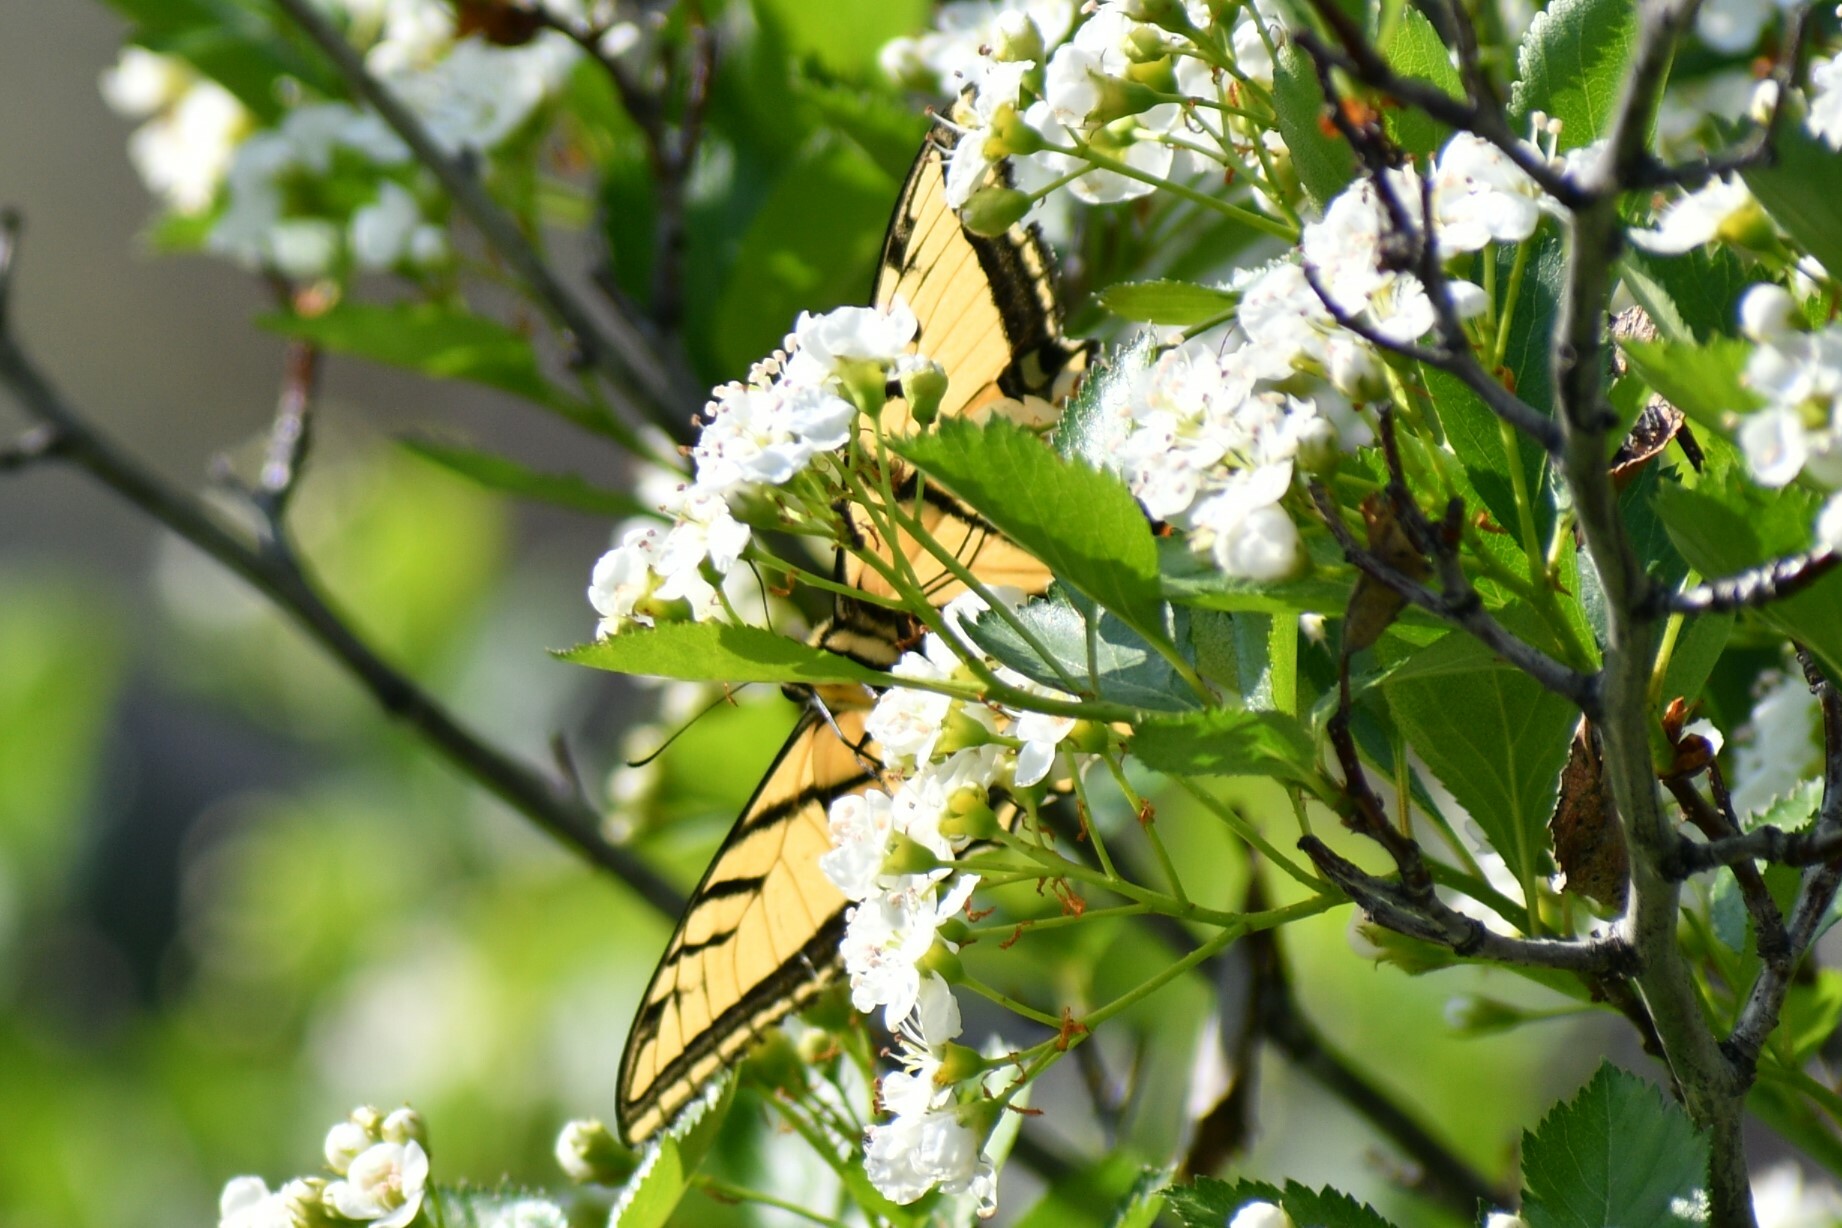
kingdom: Animalia
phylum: Arthropoda
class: Insecta
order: Lepidoptera
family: Papilionidae
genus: Papilio
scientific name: Papilio multicaudata
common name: Two-tailed tiger swallowtail
